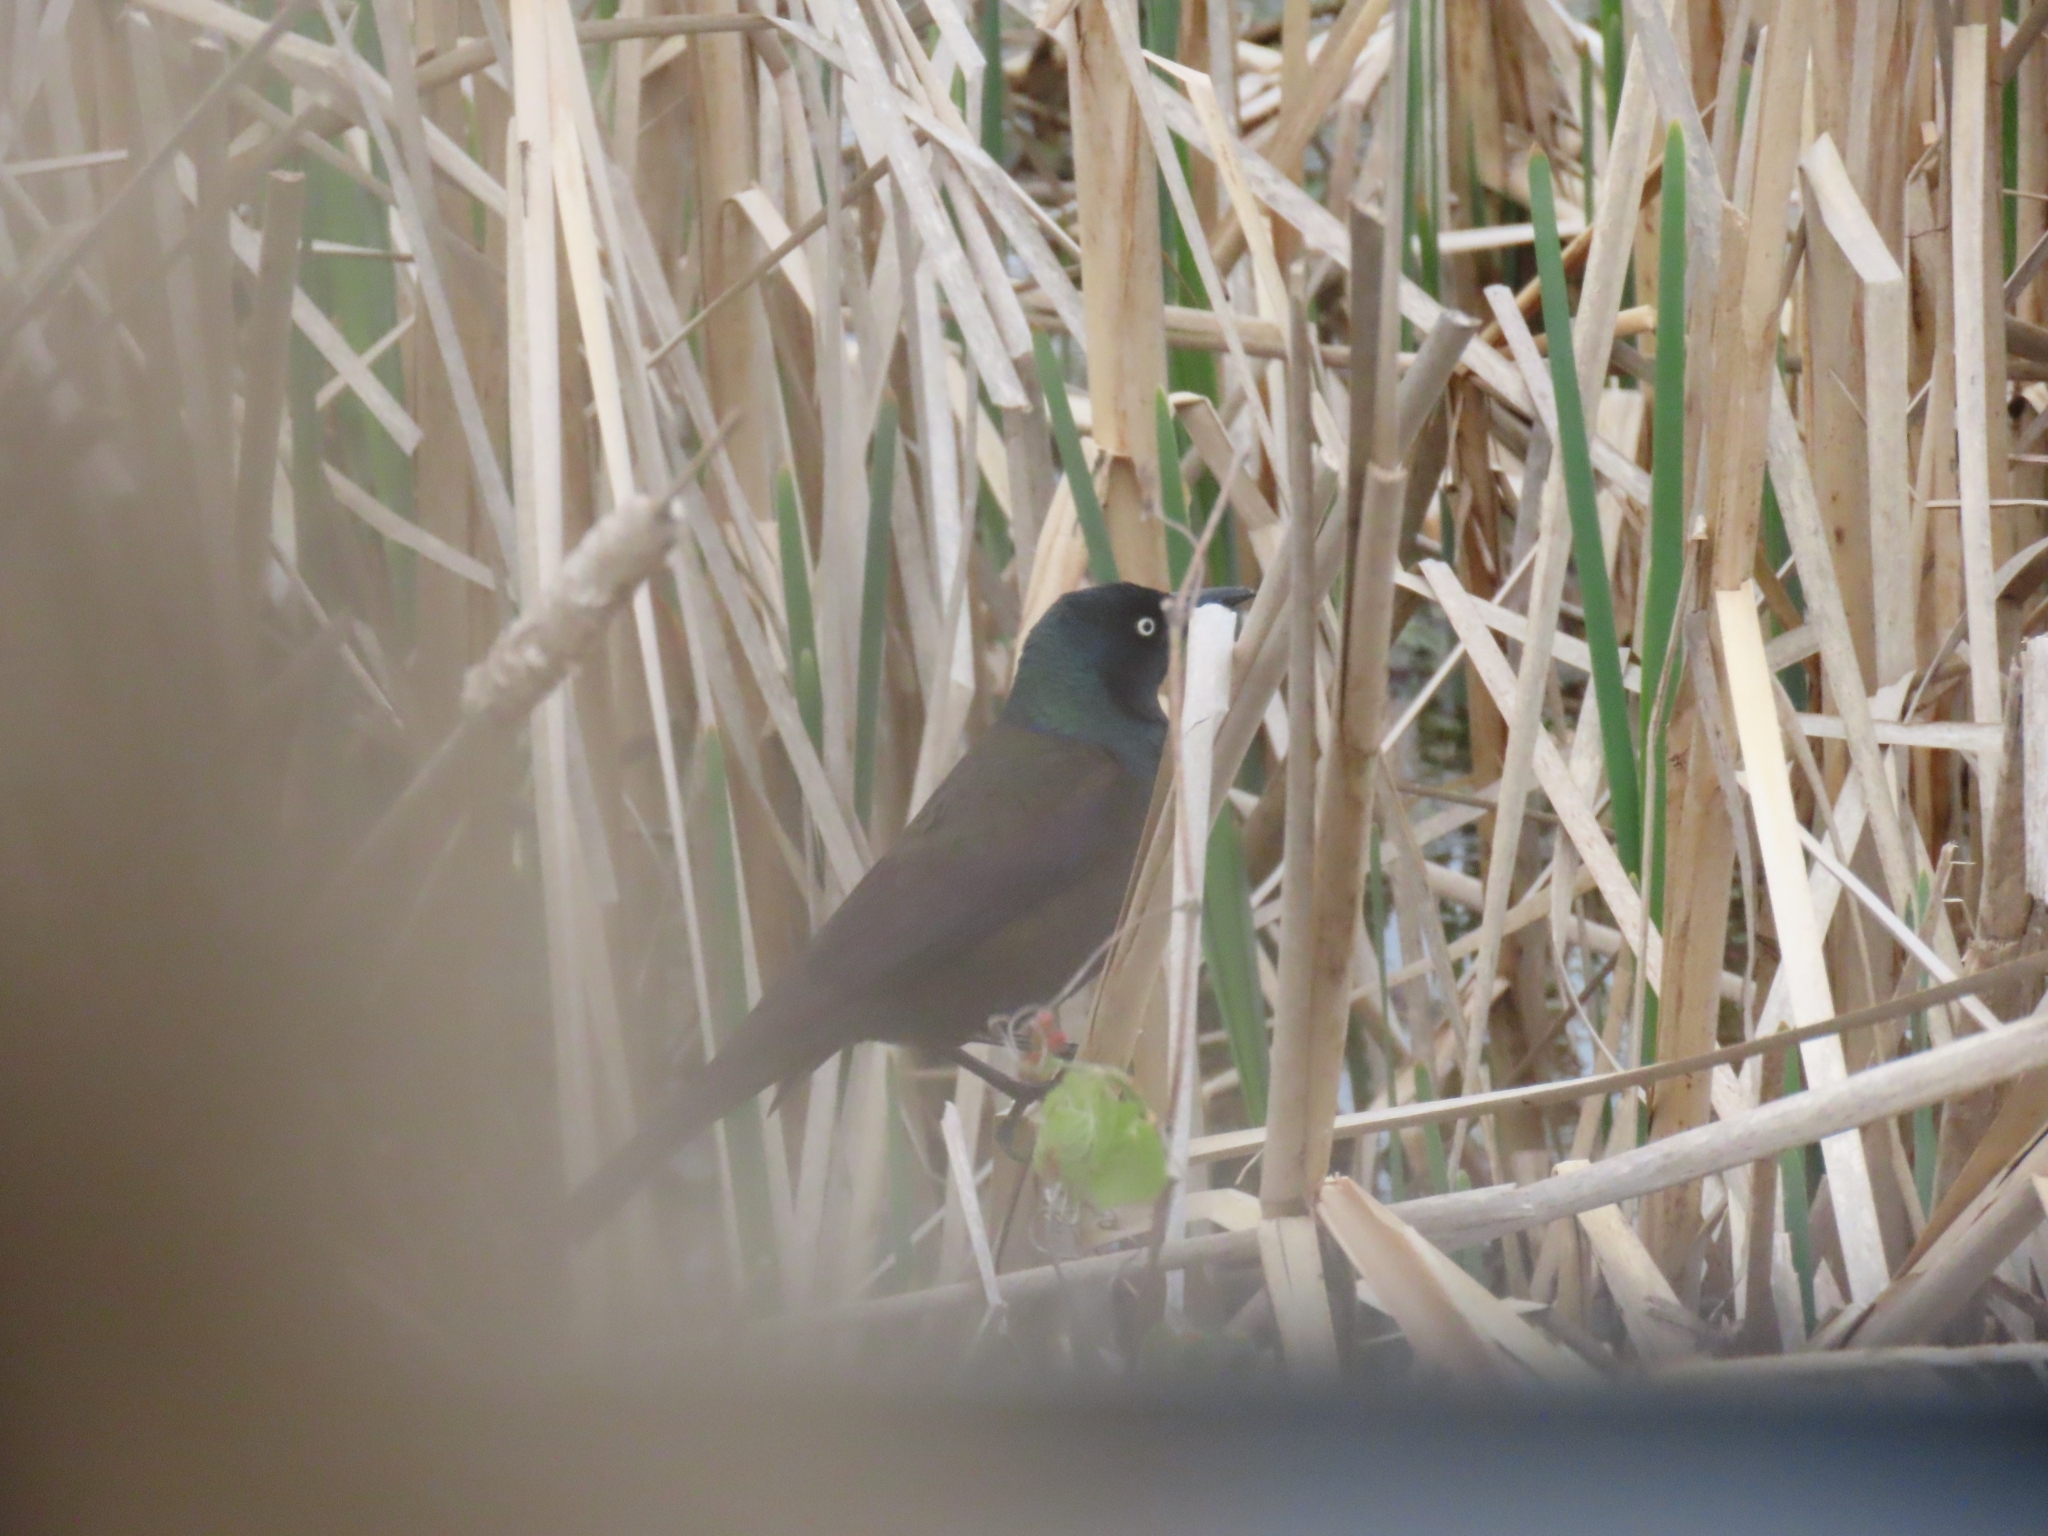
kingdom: Animalia
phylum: Chordata
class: Aves
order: Passeriformes
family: Icteridae
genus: Quiscalus
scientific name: Quiscalus quiscula
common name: Common grackle
